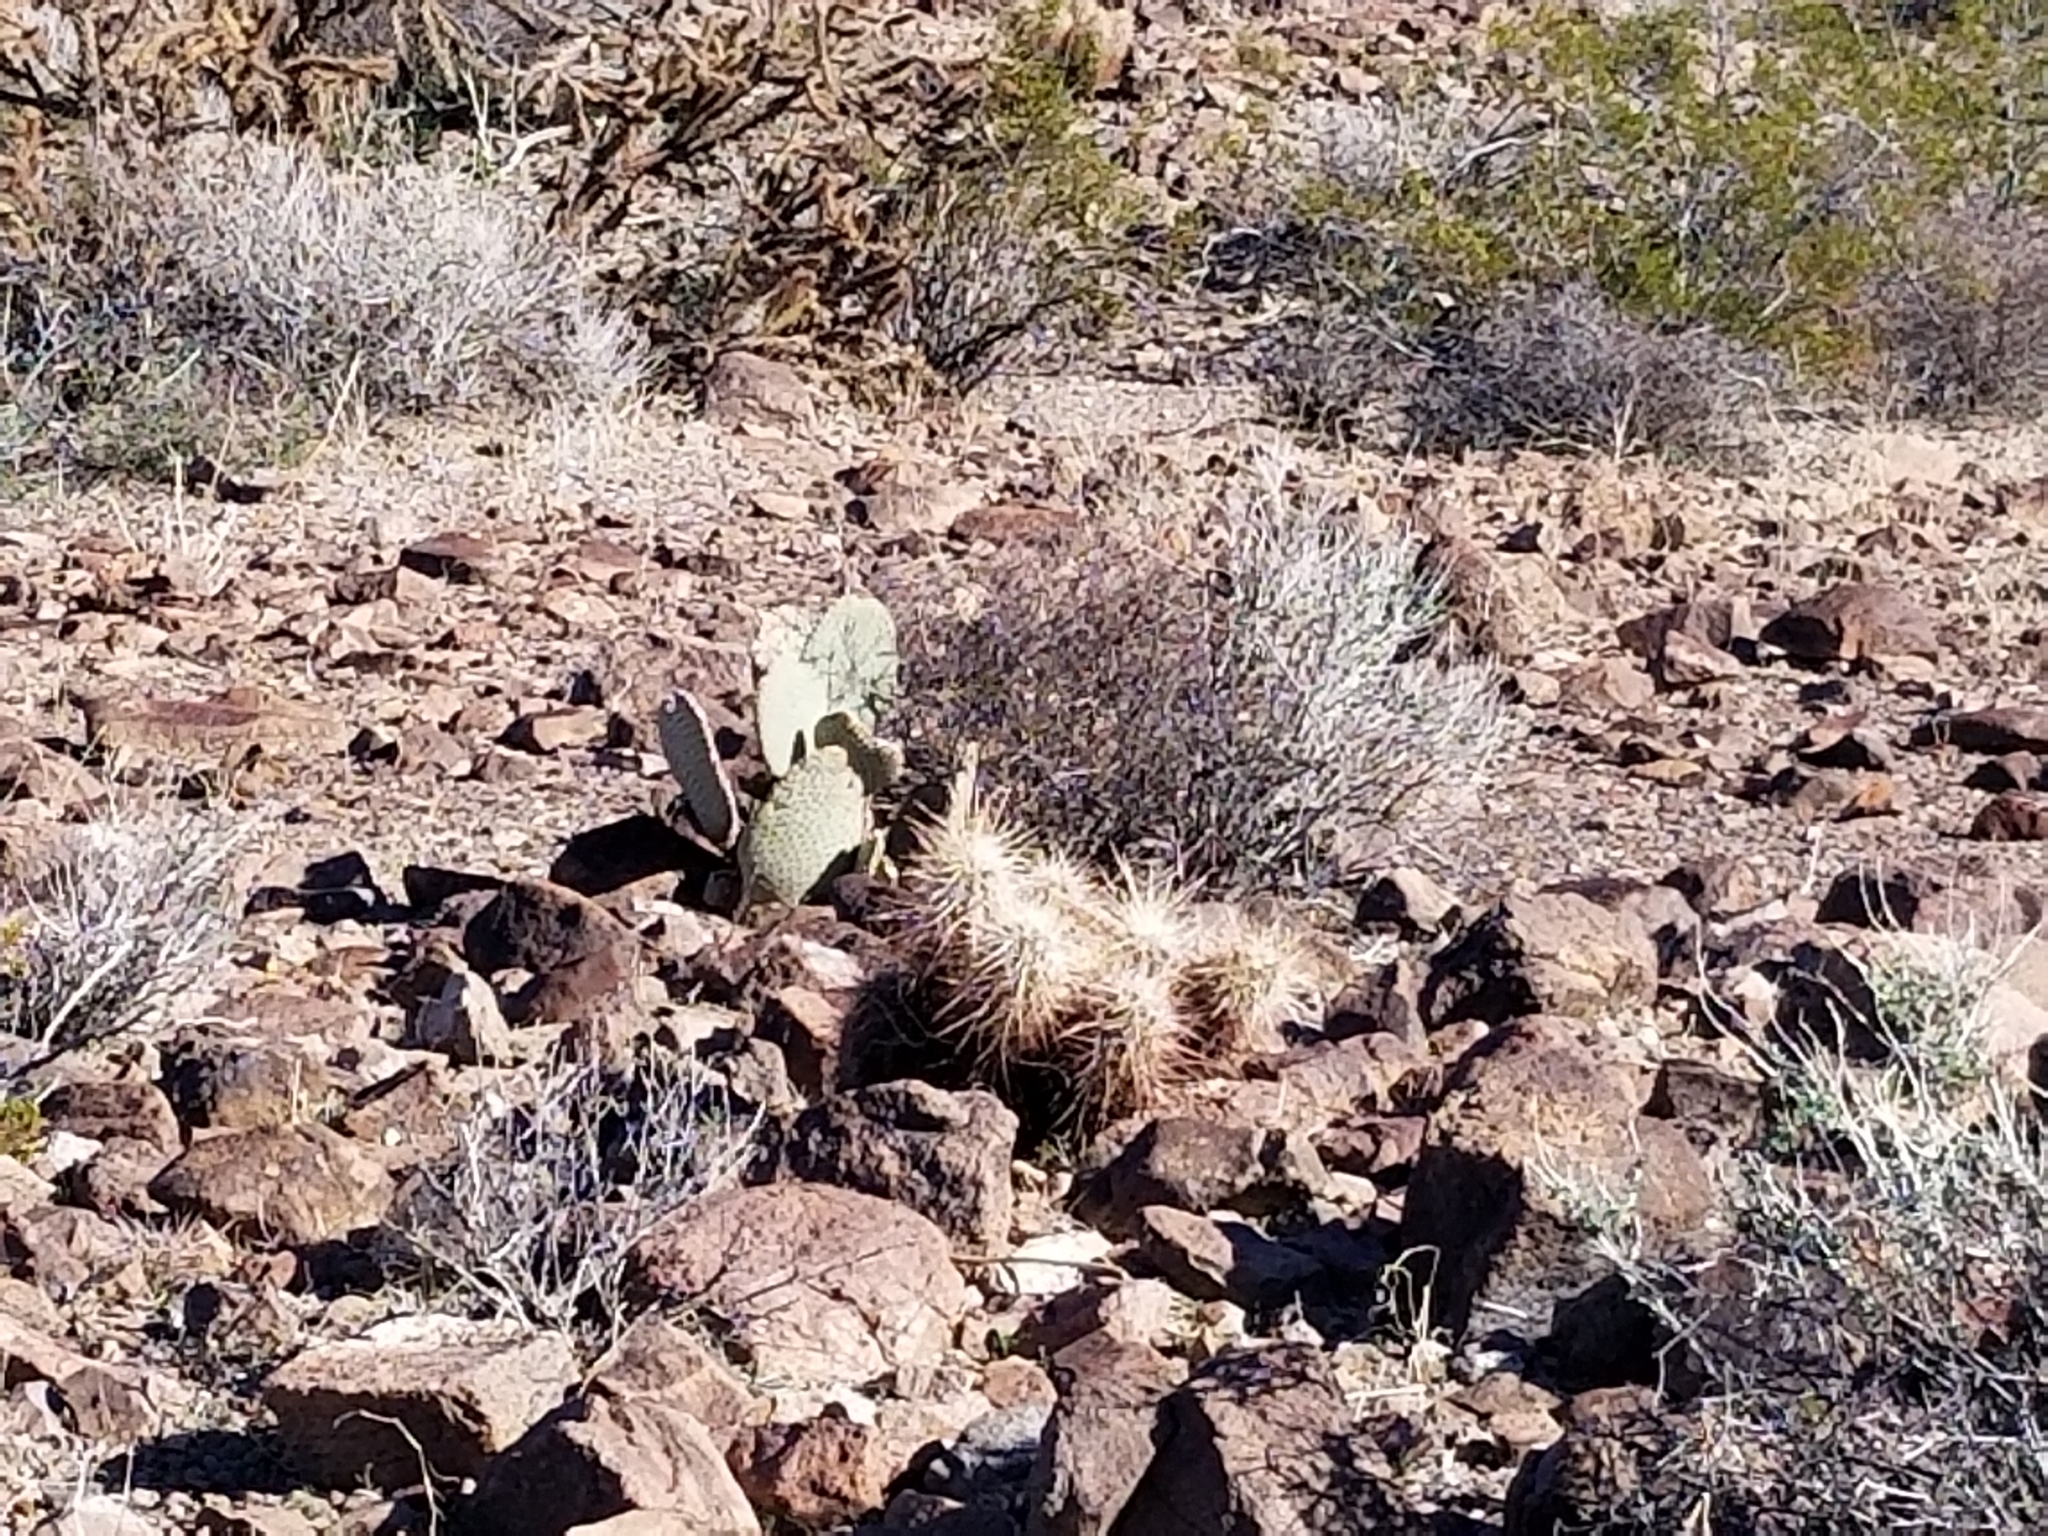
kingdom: Plantae
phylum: Tracheophyta
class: Magnoliopsida
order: Caryophyllales
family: Cactaceae
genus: Echinocereus
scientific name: Echinocereus engelmannii
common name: Engelmann's hedgehog cactus
